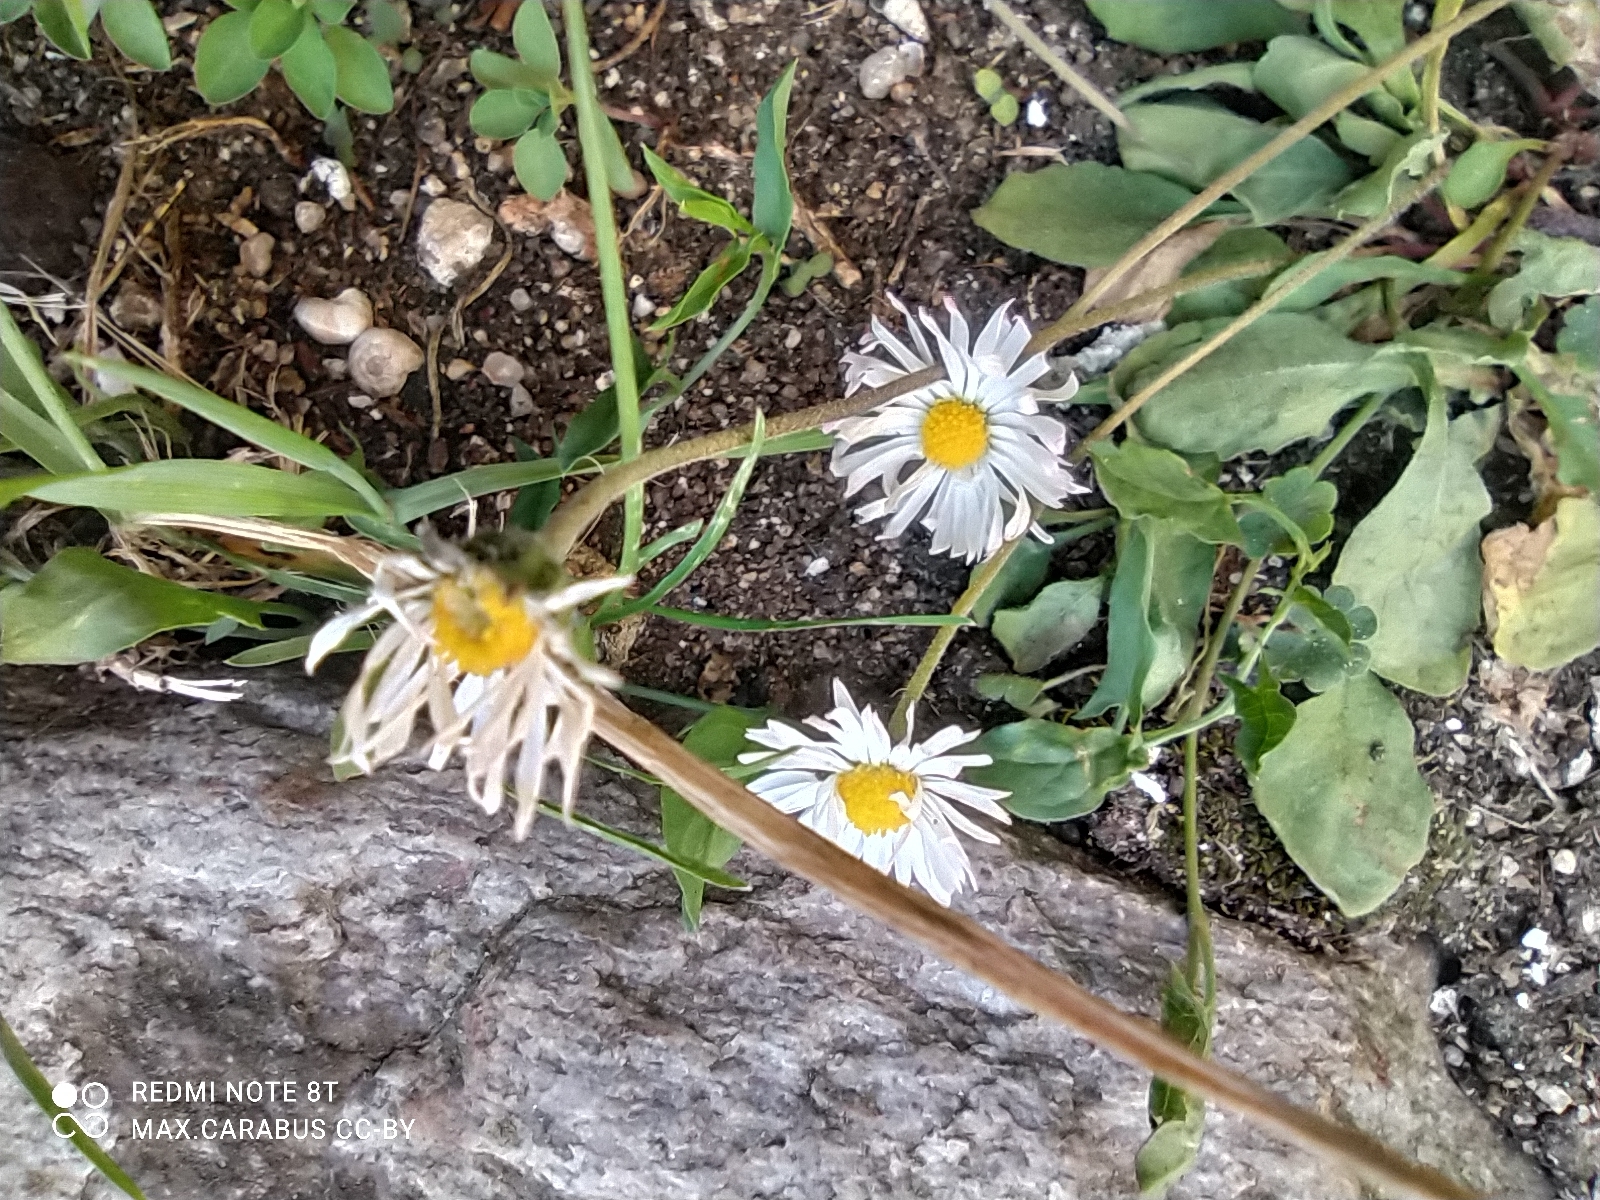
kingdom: Plantae
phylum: Tracheophyta
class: Magnoliopsida
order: Asterales
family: Asteraceae
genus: Bellis
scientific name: Bellis perennis
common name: Lawndaisy
